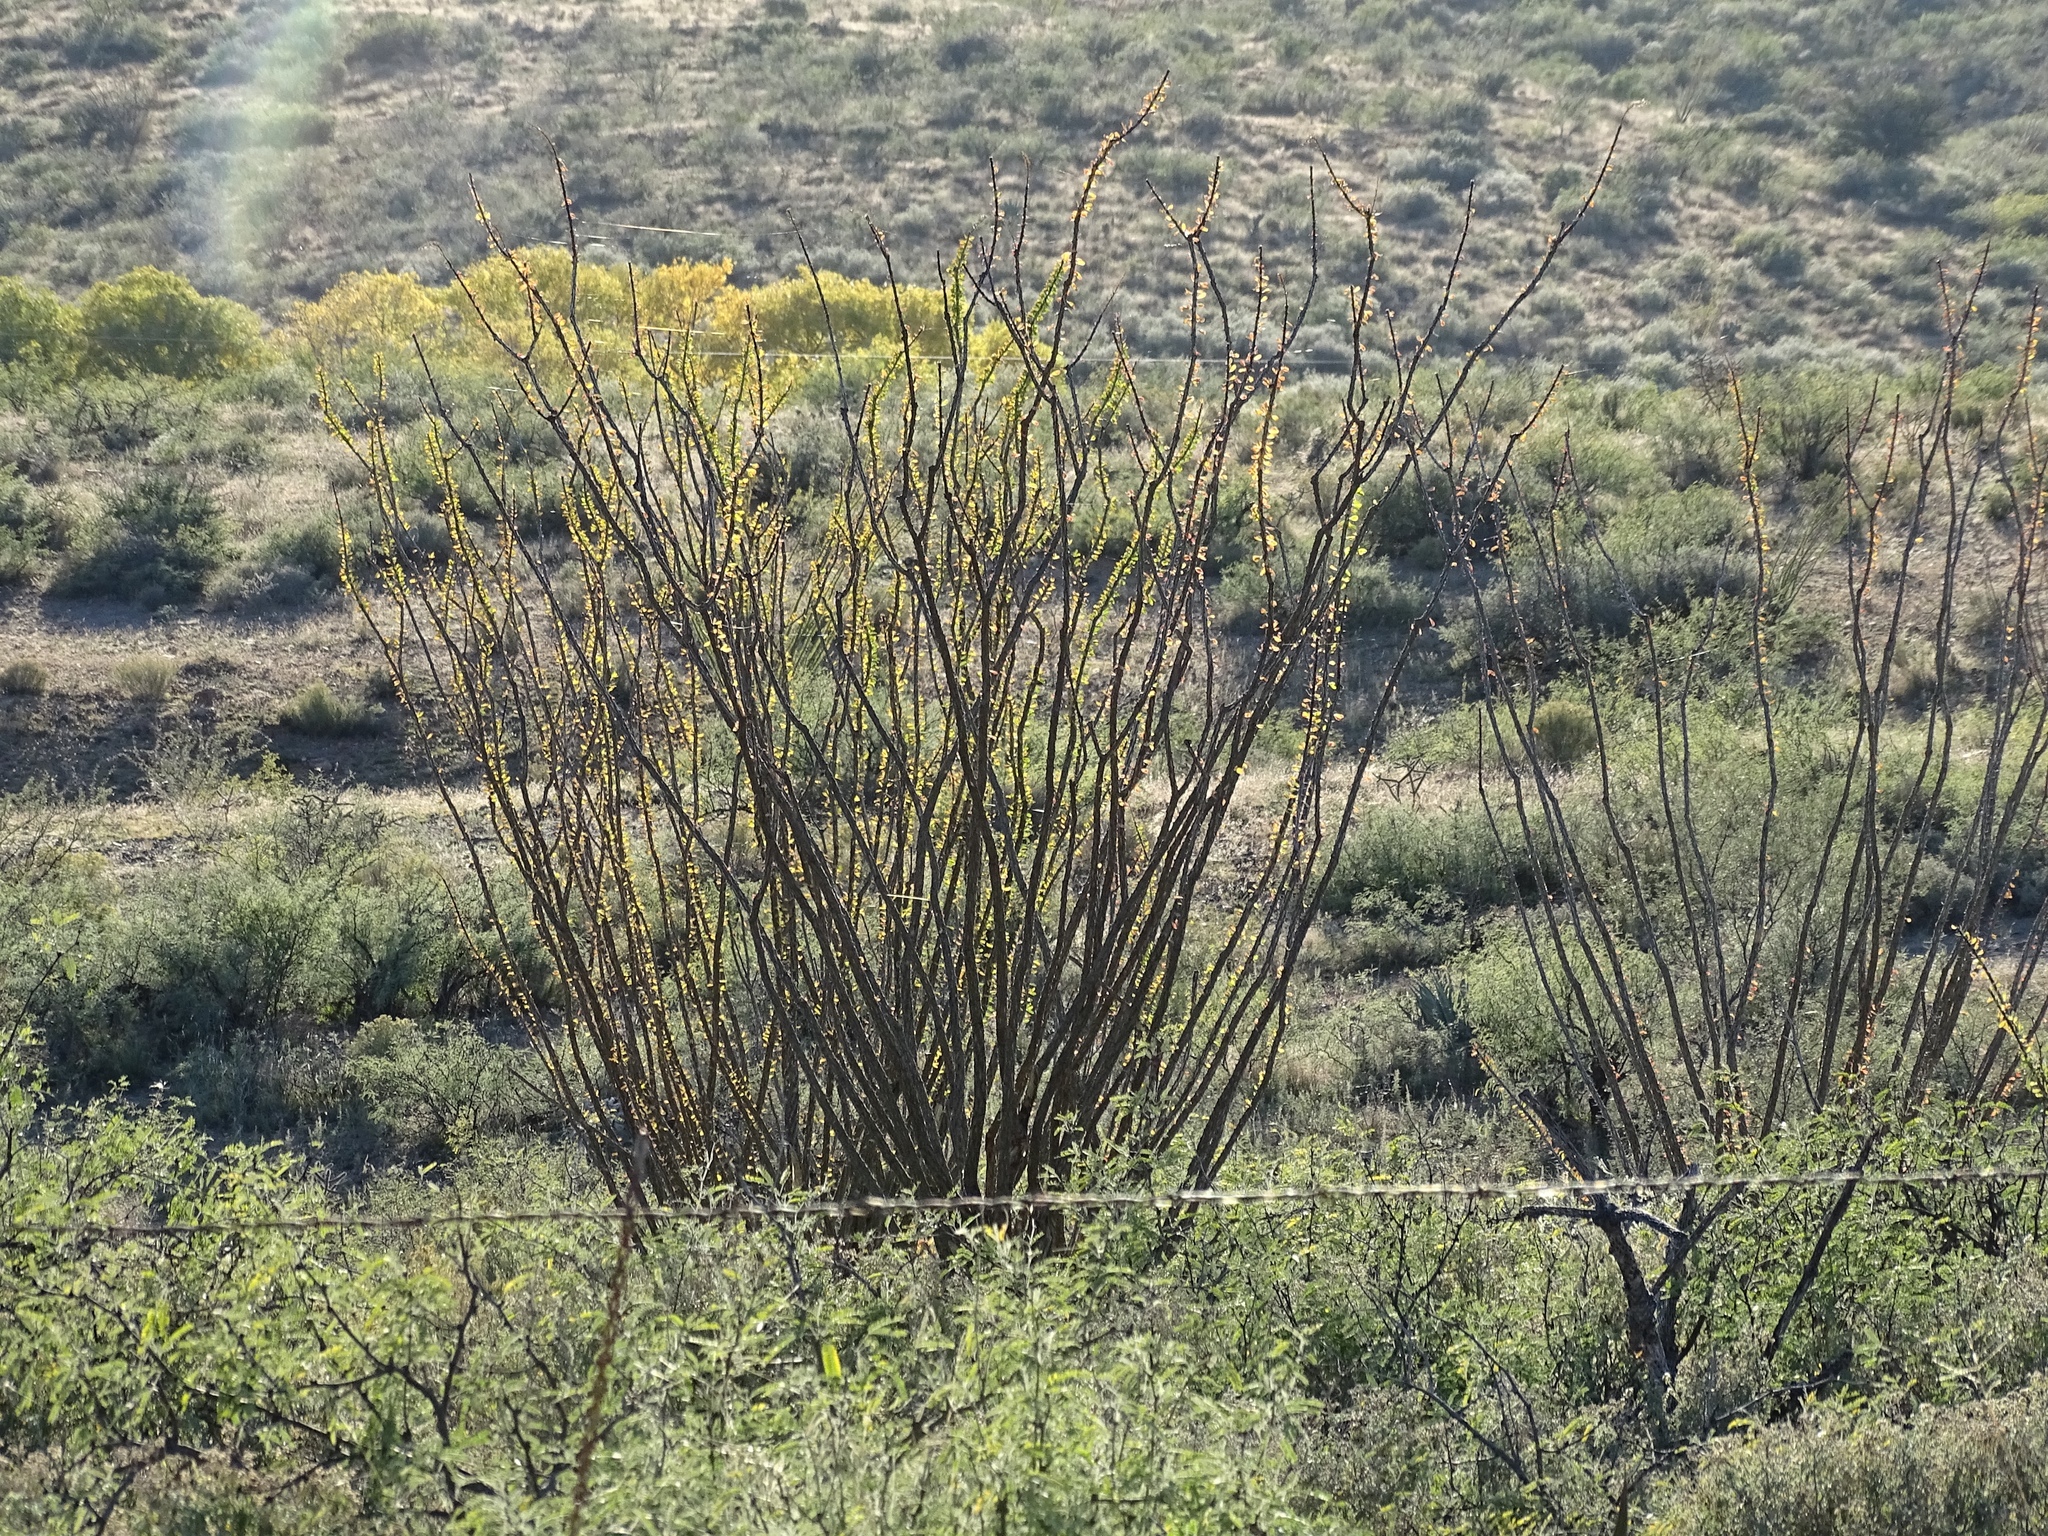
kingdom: Plantae
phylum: Tracheophyta
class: Magnoliopsida
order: Ericales
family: Fouquieriaceae
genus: Fouquieria
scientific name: Fouquieria splendens
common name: Vine-cactus
